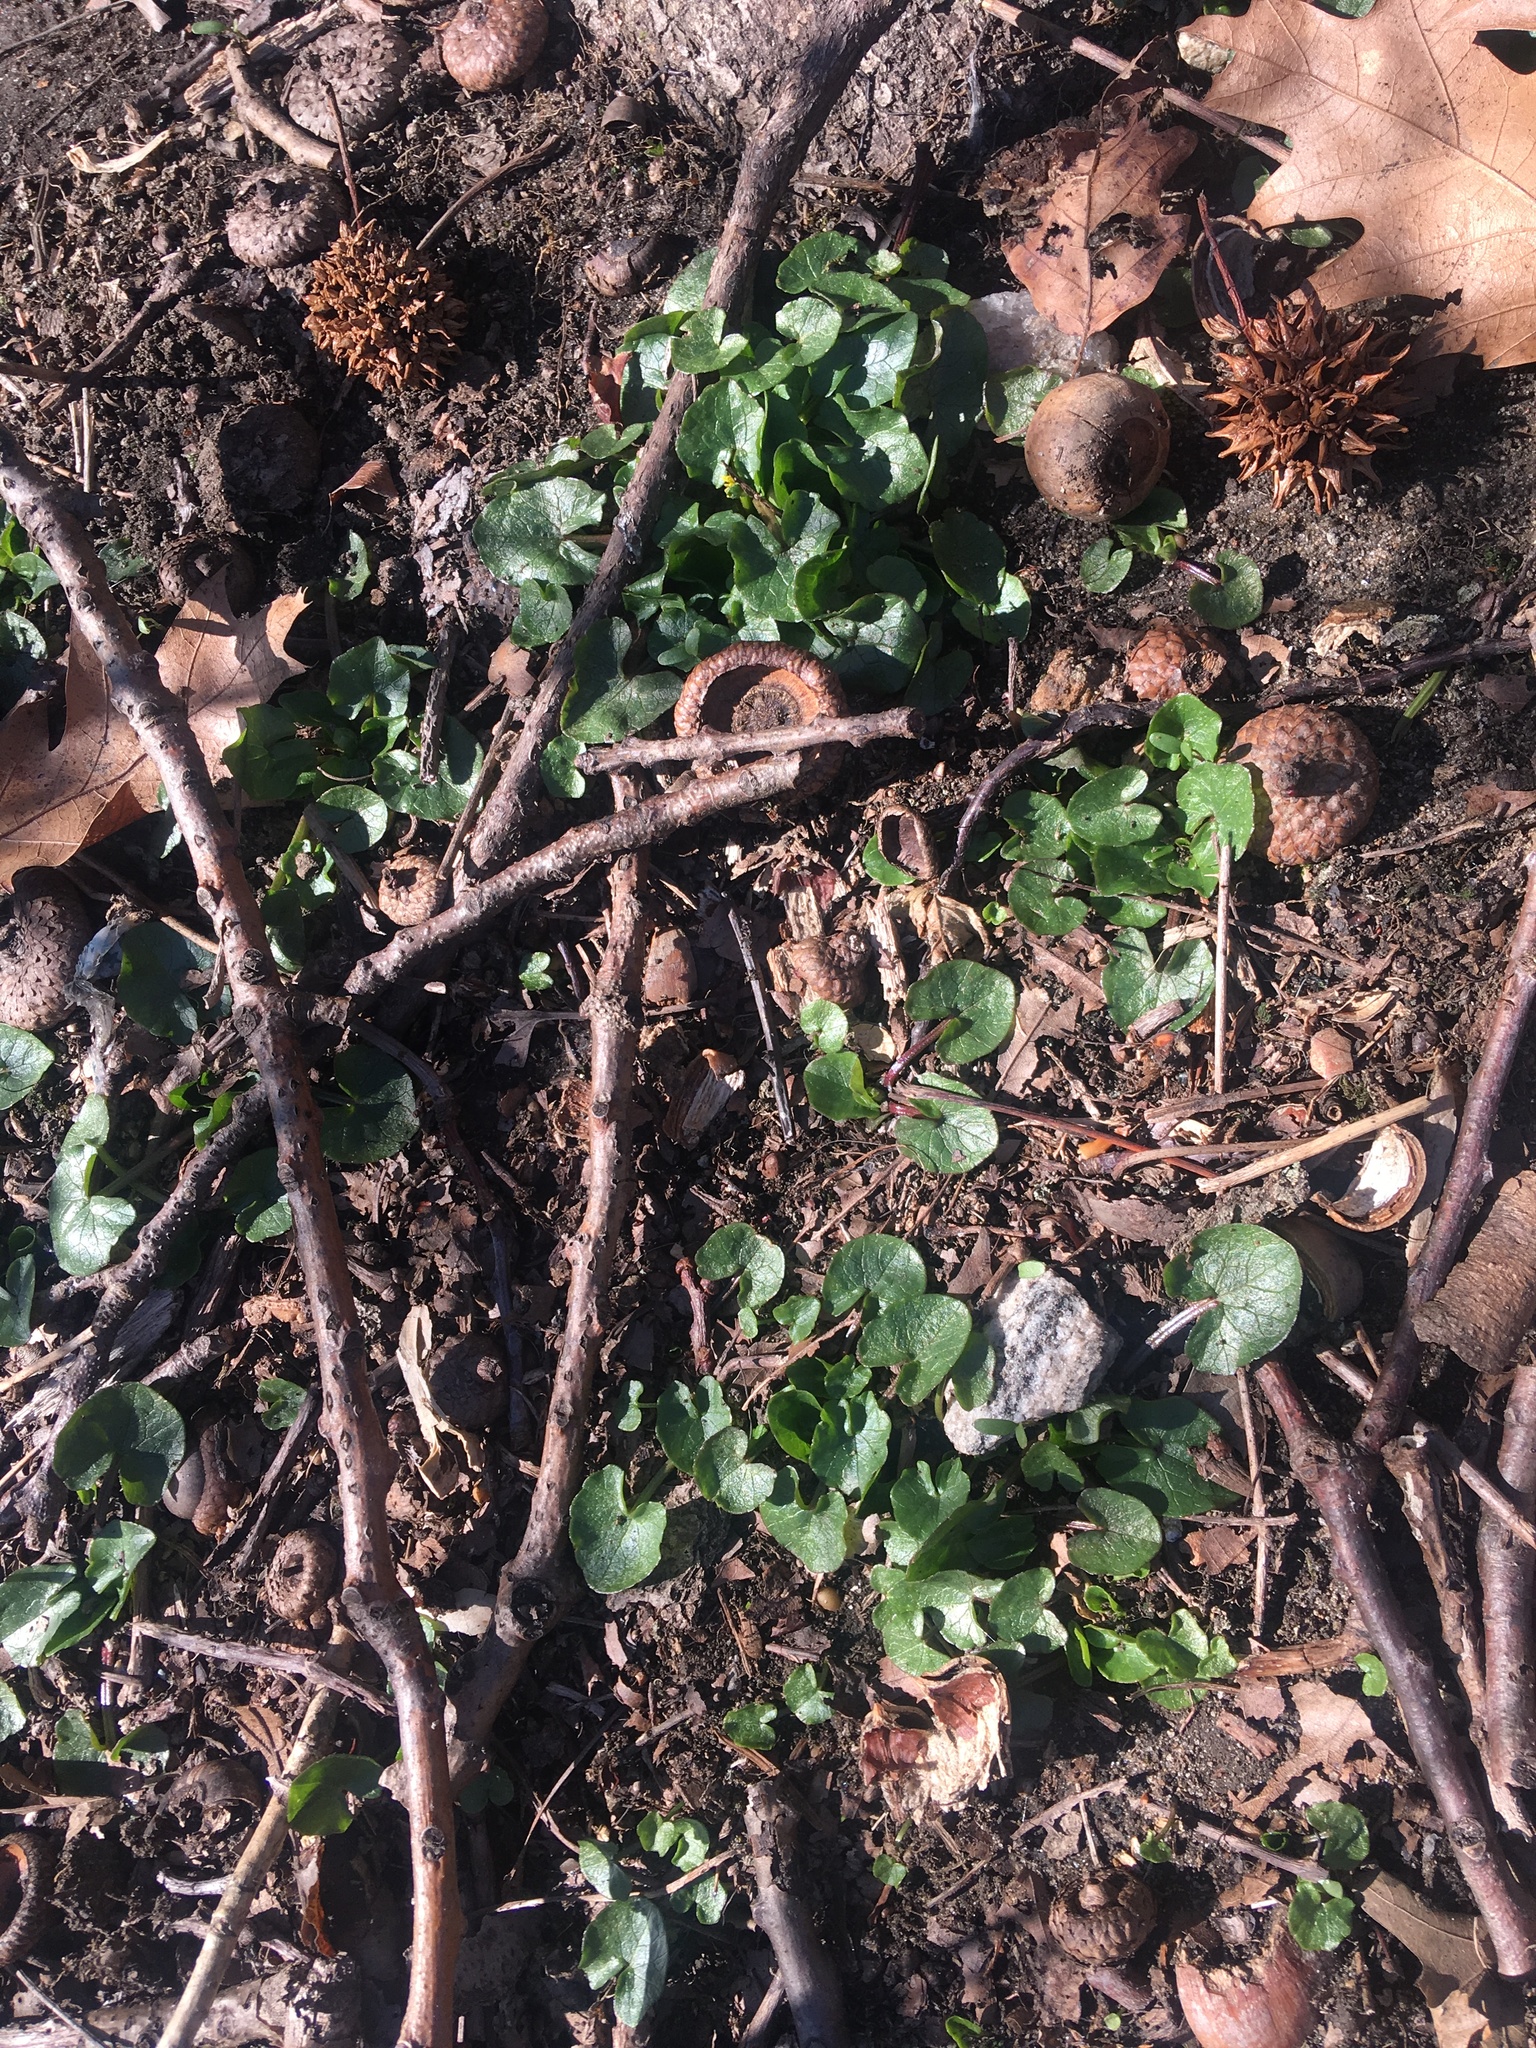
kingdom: Plantae
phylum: Tracheophyta
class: Magnoliopsida
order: Ranunculales
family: Ranunculaceae
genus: Ficaria
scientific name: Ficaria verna
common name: Lesser celandine
